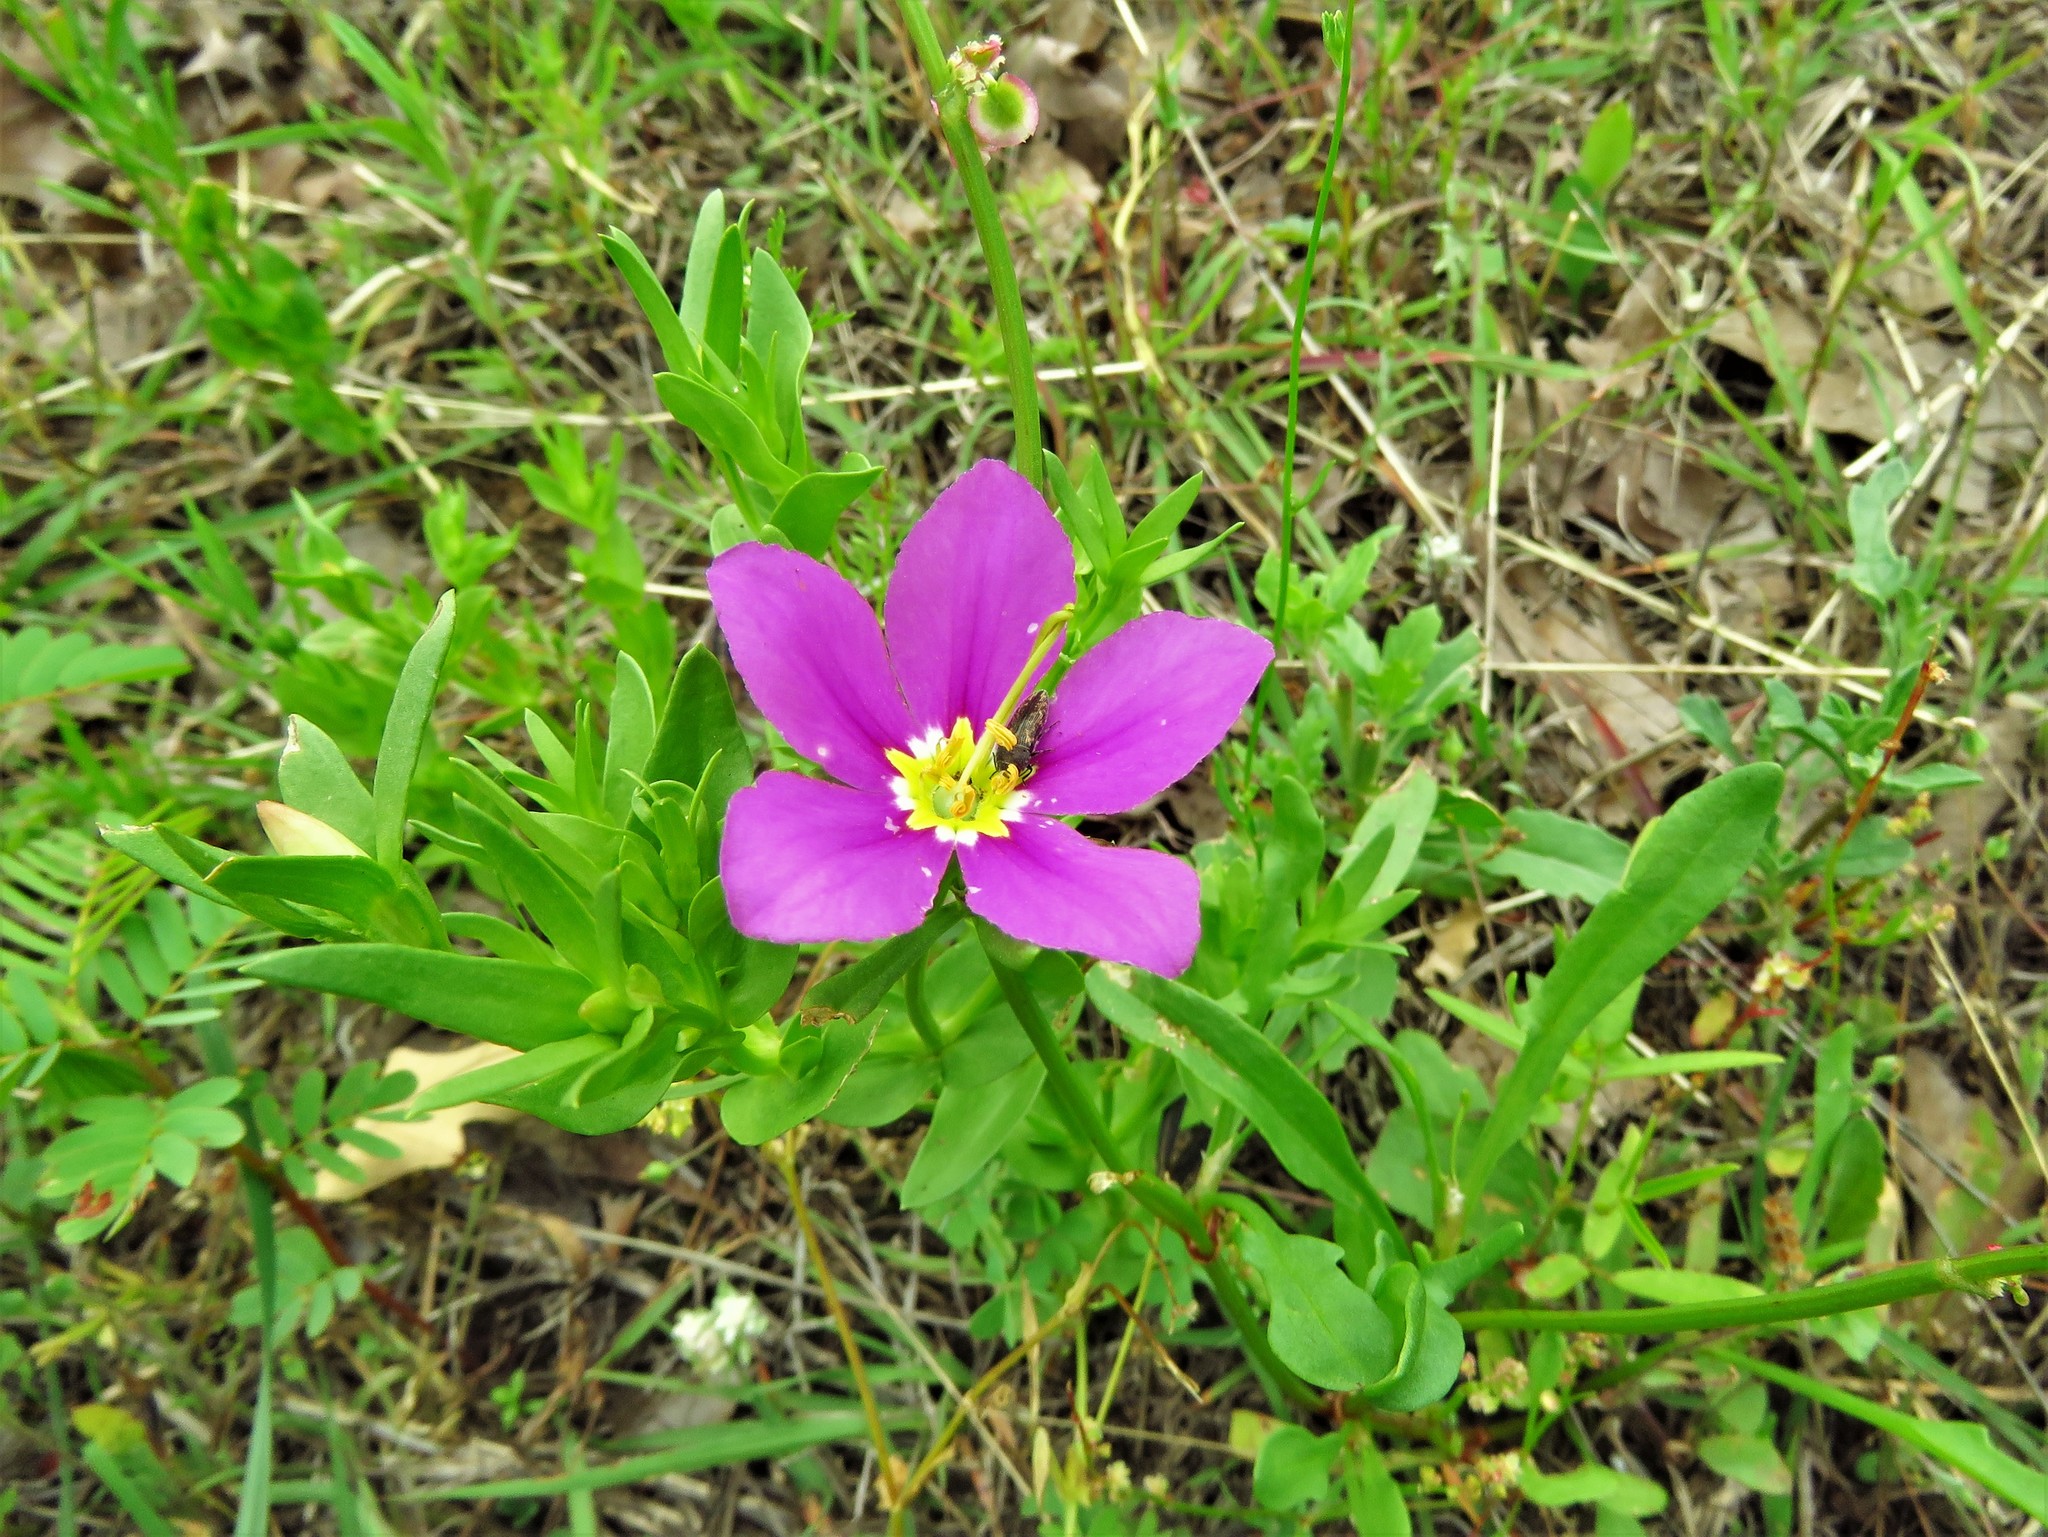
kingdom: Plantae
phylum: Tracheophyta
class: Magnoliopsida
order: Gentianales
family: Gentianaceae
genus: Sabatia
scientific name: Sabatia campestris
